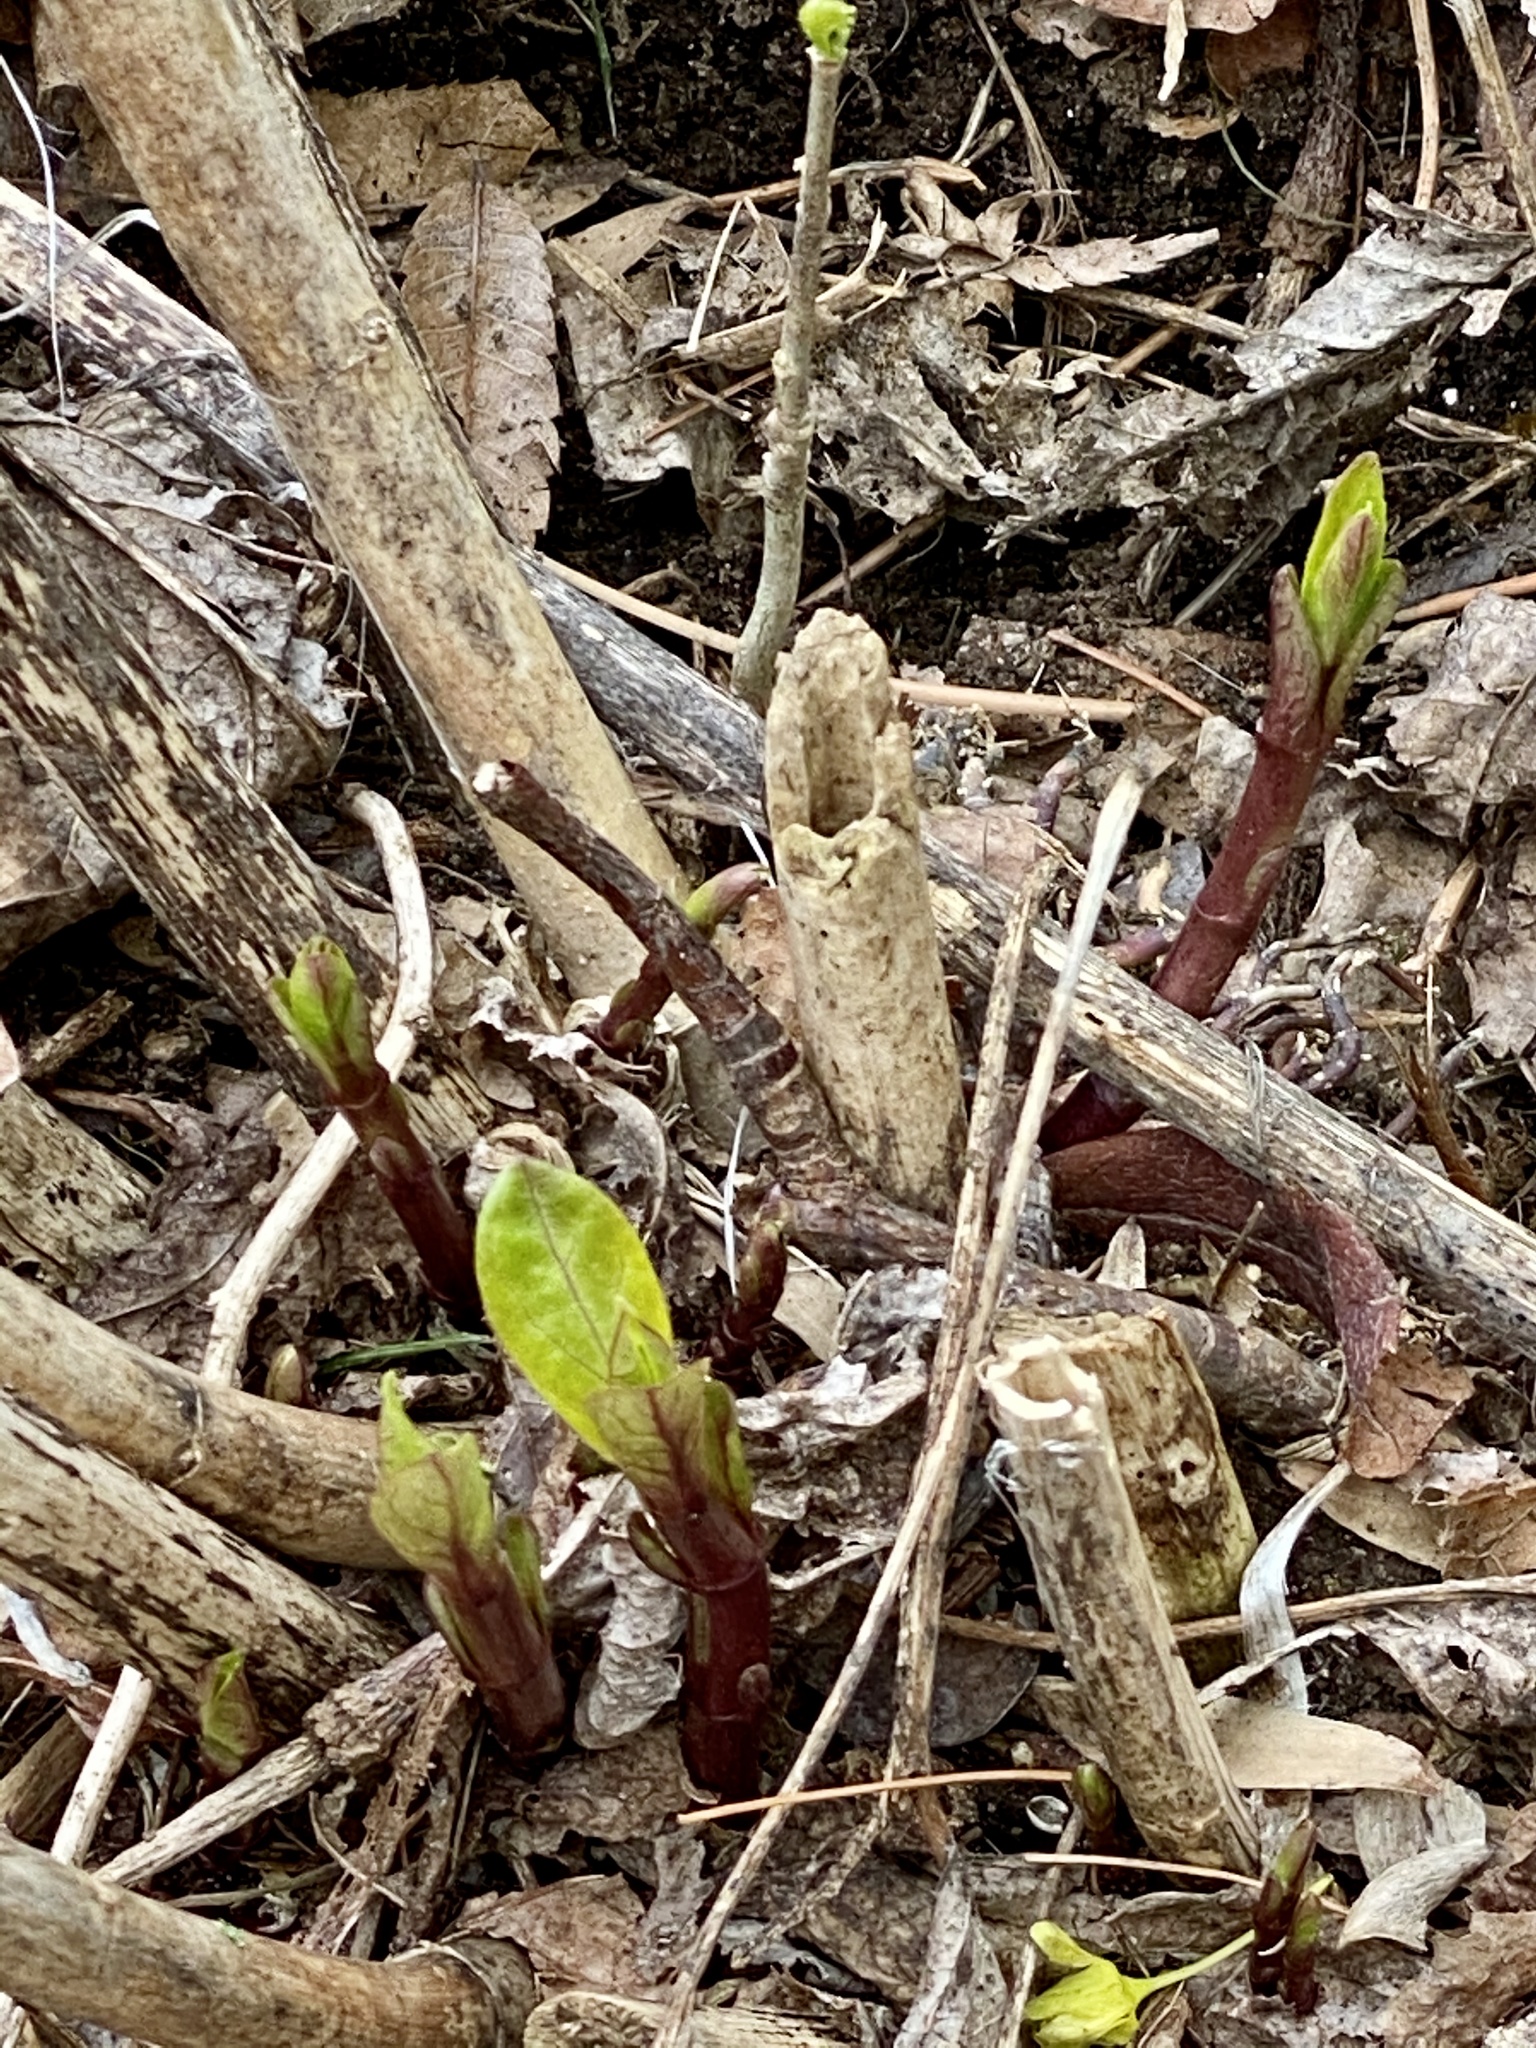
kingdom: Plantae
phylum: Tracheophyta
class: Magnoliopsida
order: Gentianales
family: Apocynaceae
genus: Asclepias
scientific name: Asclepias syriaca
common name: Common milkweed
